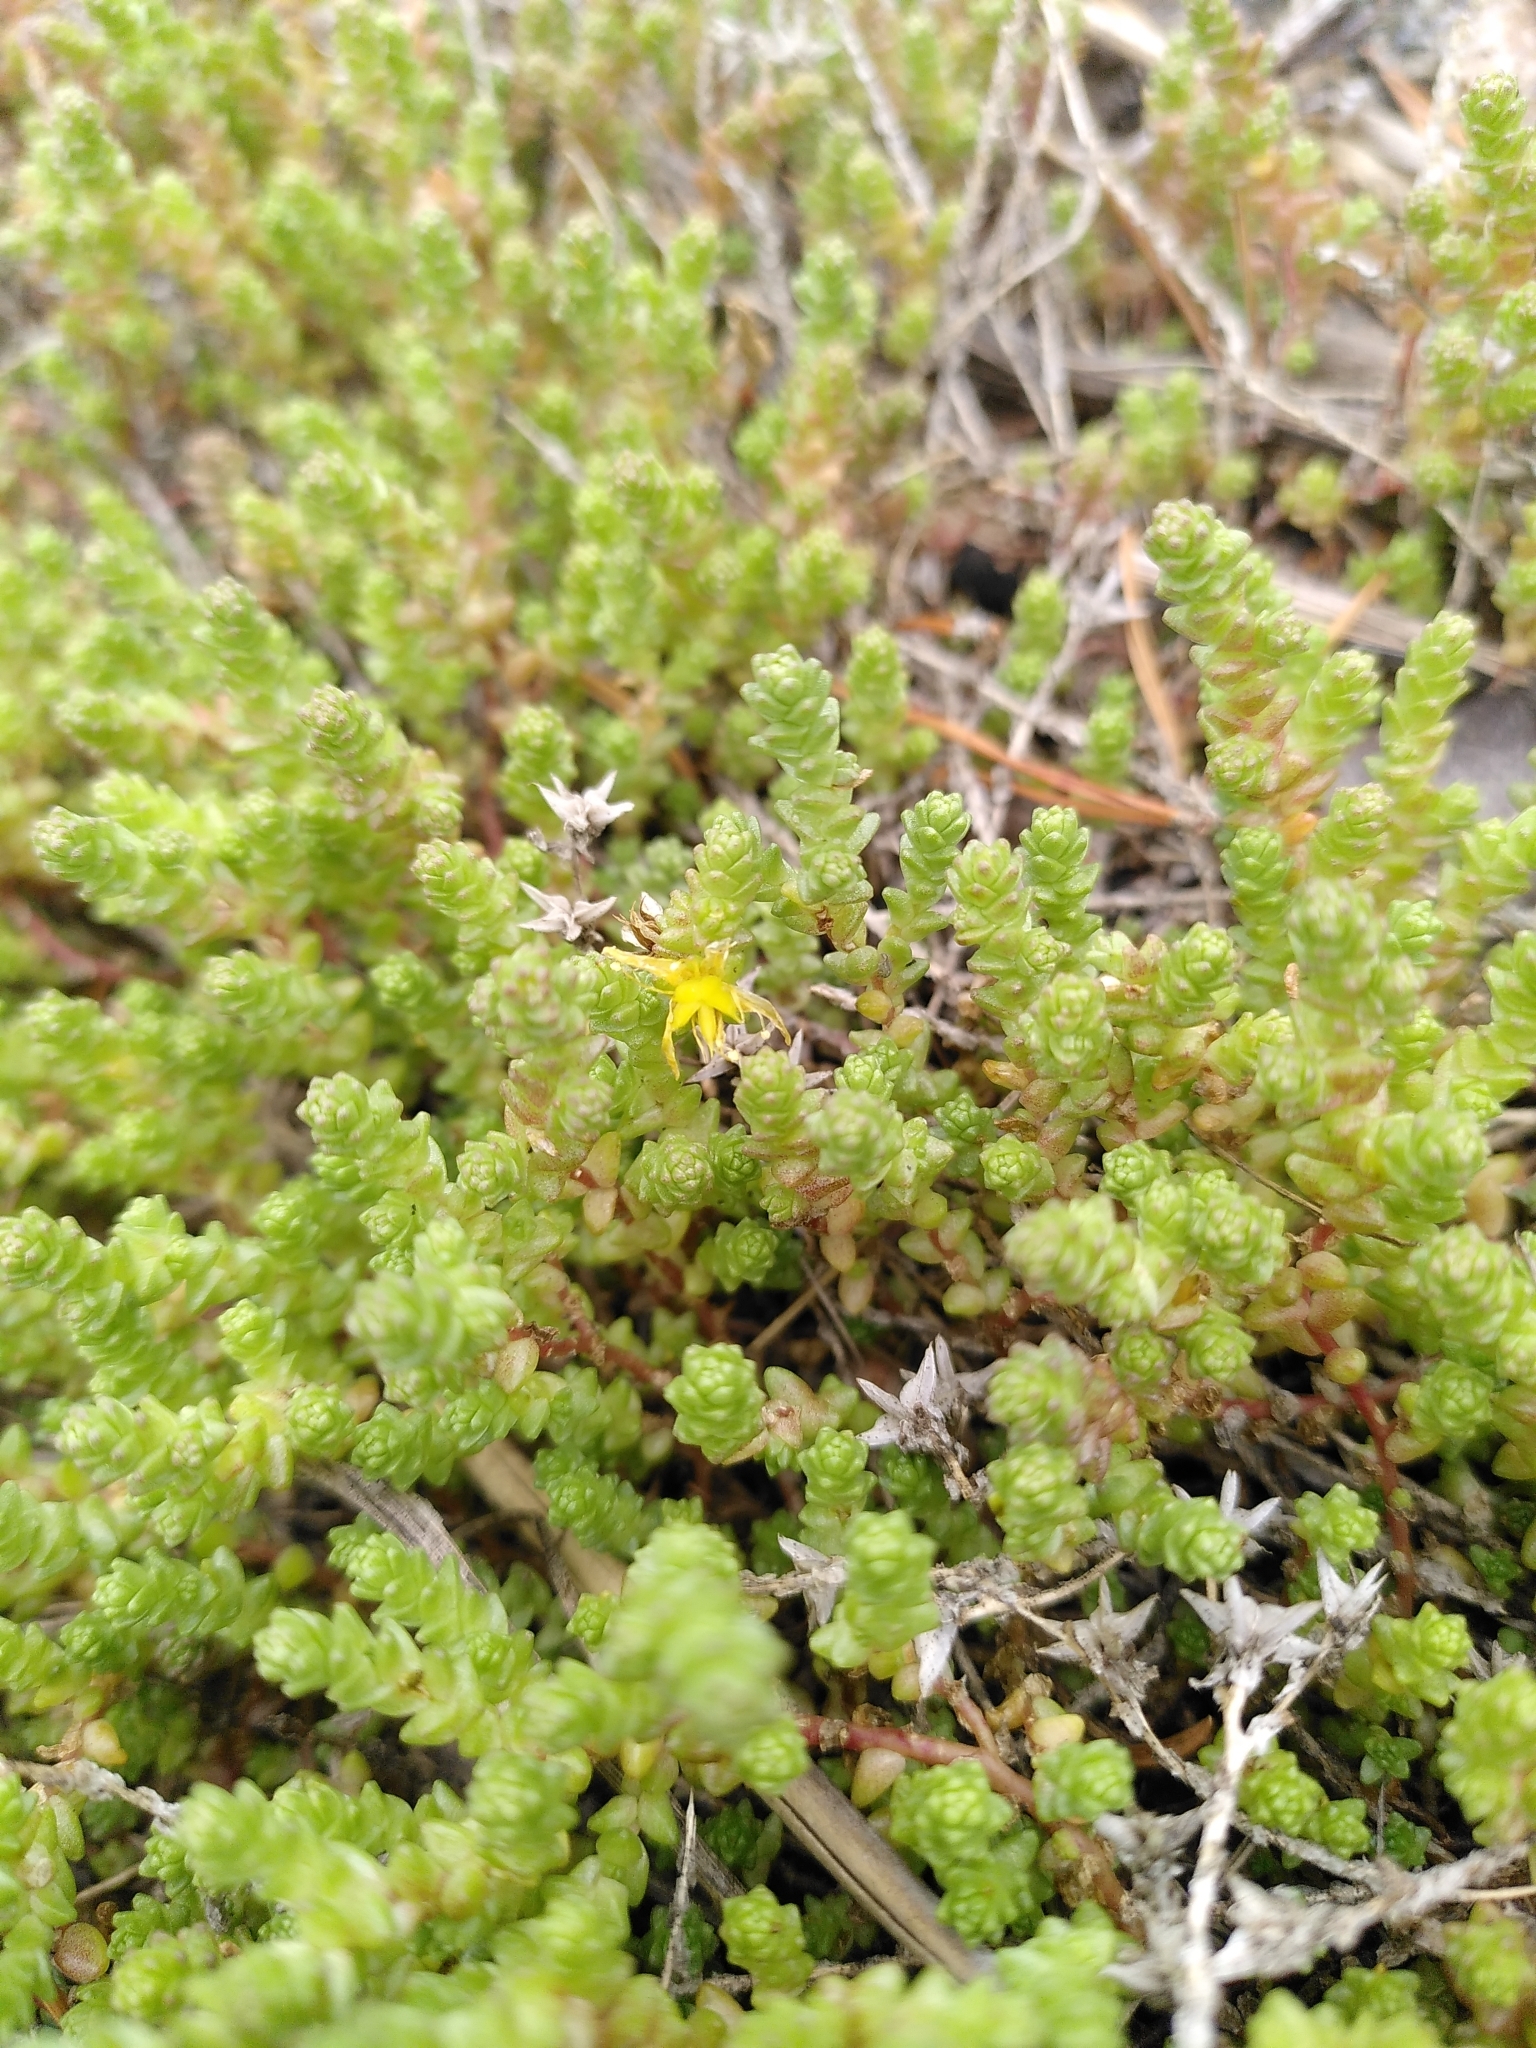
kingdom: Plantae
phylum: Tracheophyta
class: Magnoliopsida
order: Saxifragales
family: Crassulaceae
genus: Sedum
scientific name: Sedum acre
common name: Biting stonecrop
